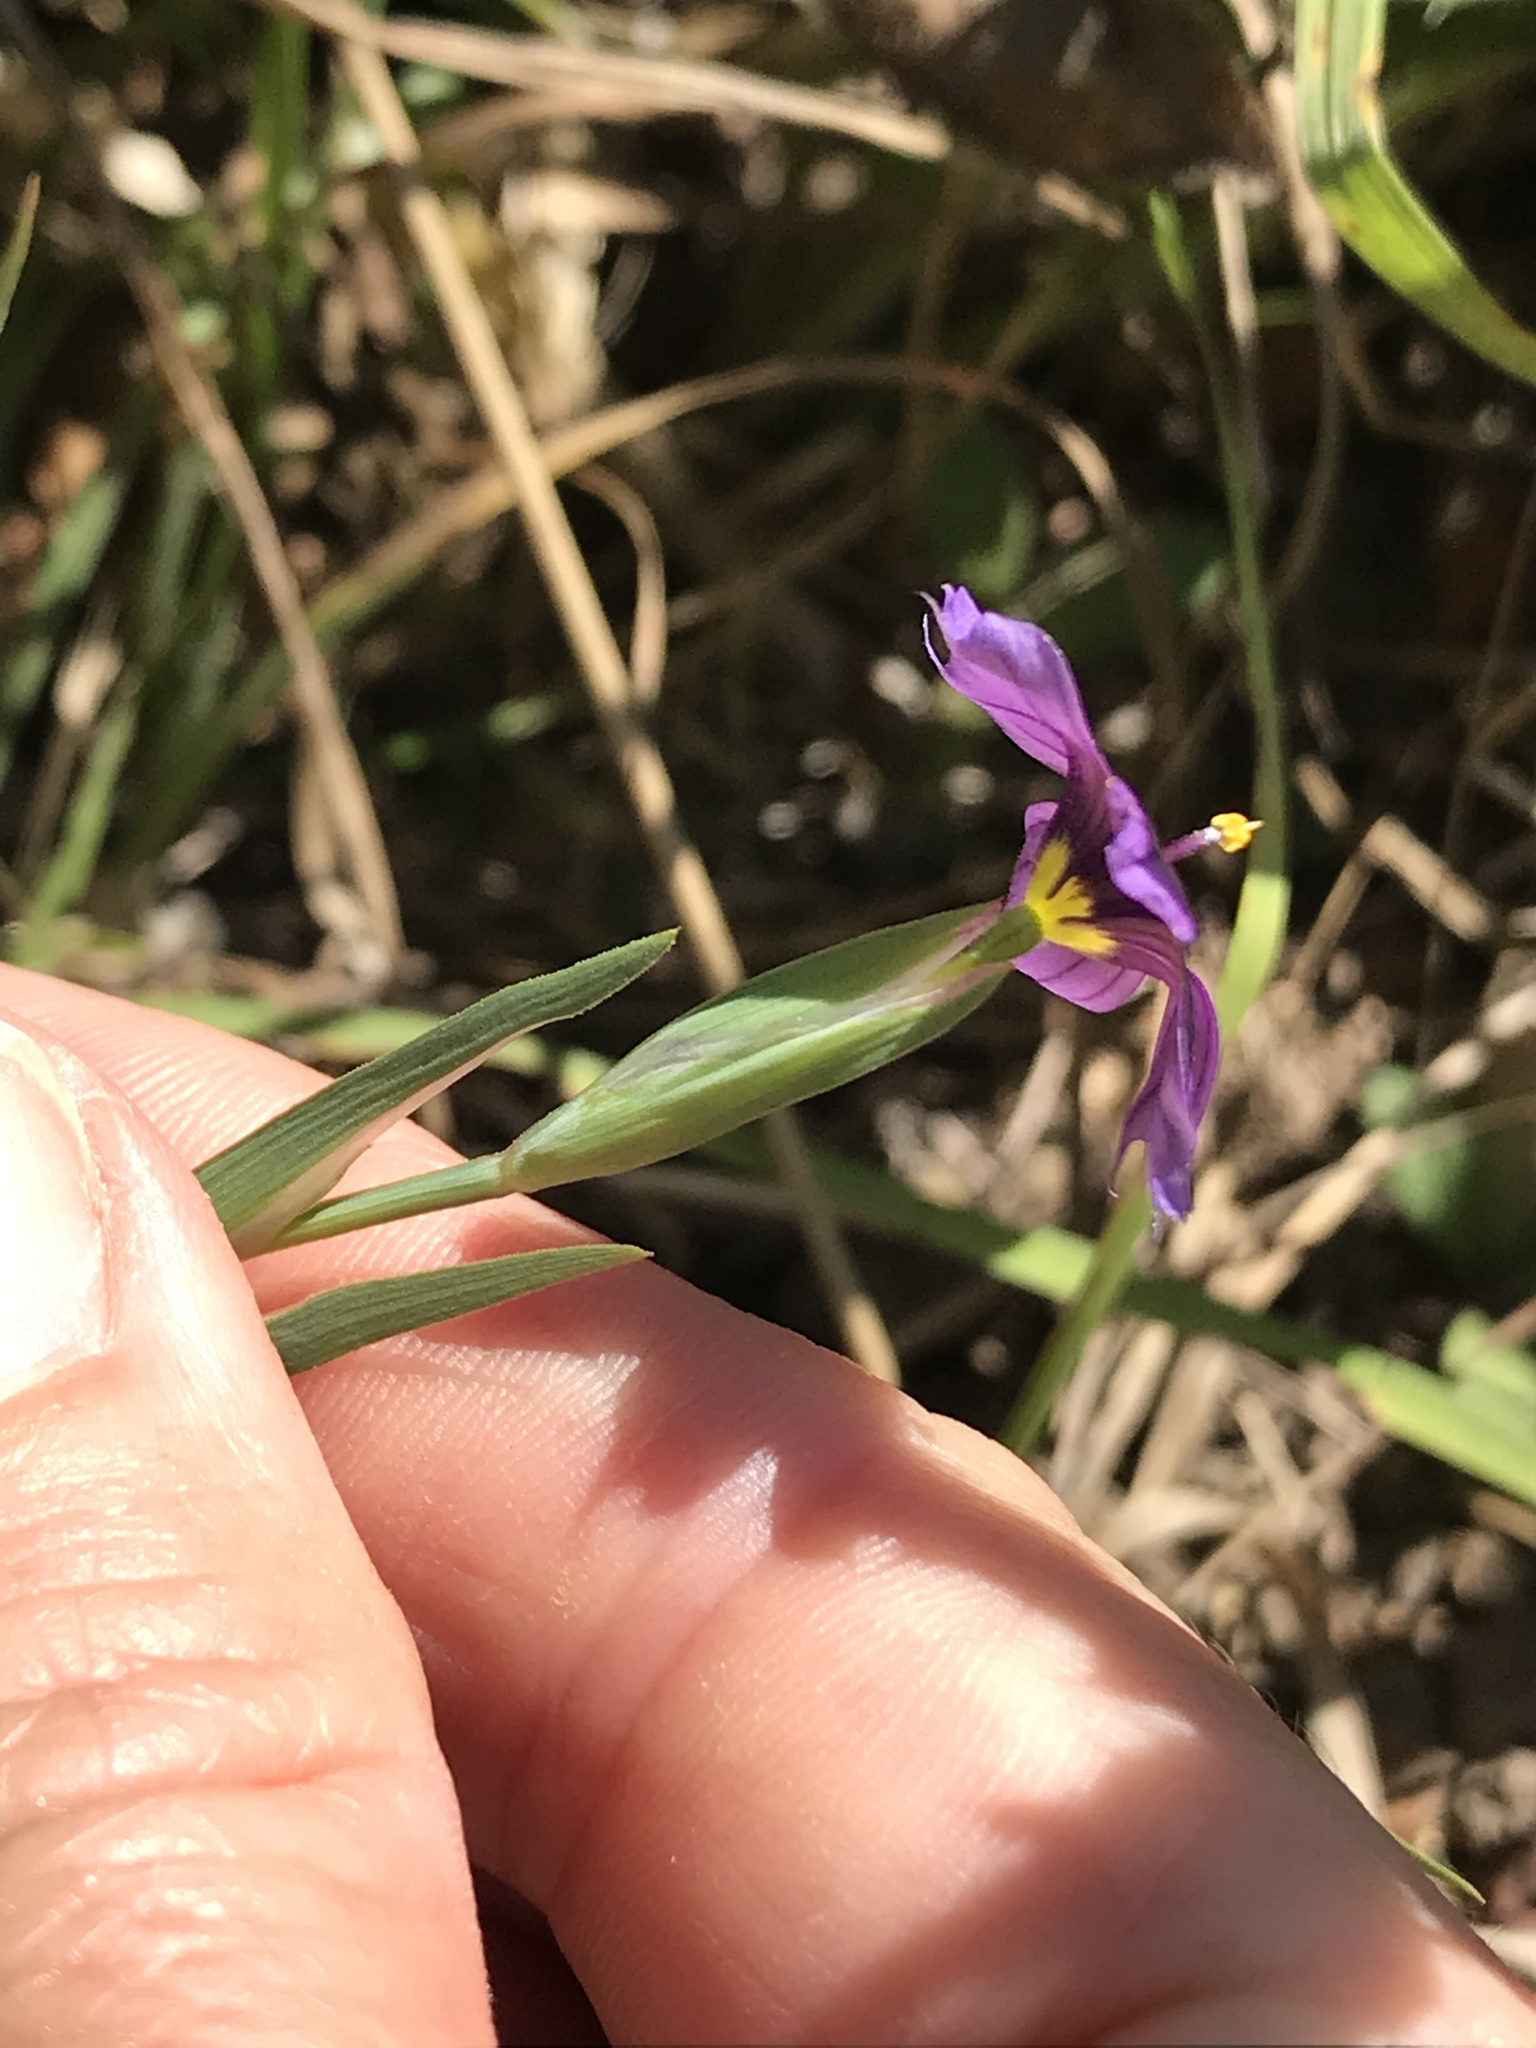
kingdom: Plantae
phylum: Tracheophyta
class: Liliopsida
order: Asparagales
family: Iridaceae
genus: Sisyrinchium
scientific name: Sisyrinchium bellum
